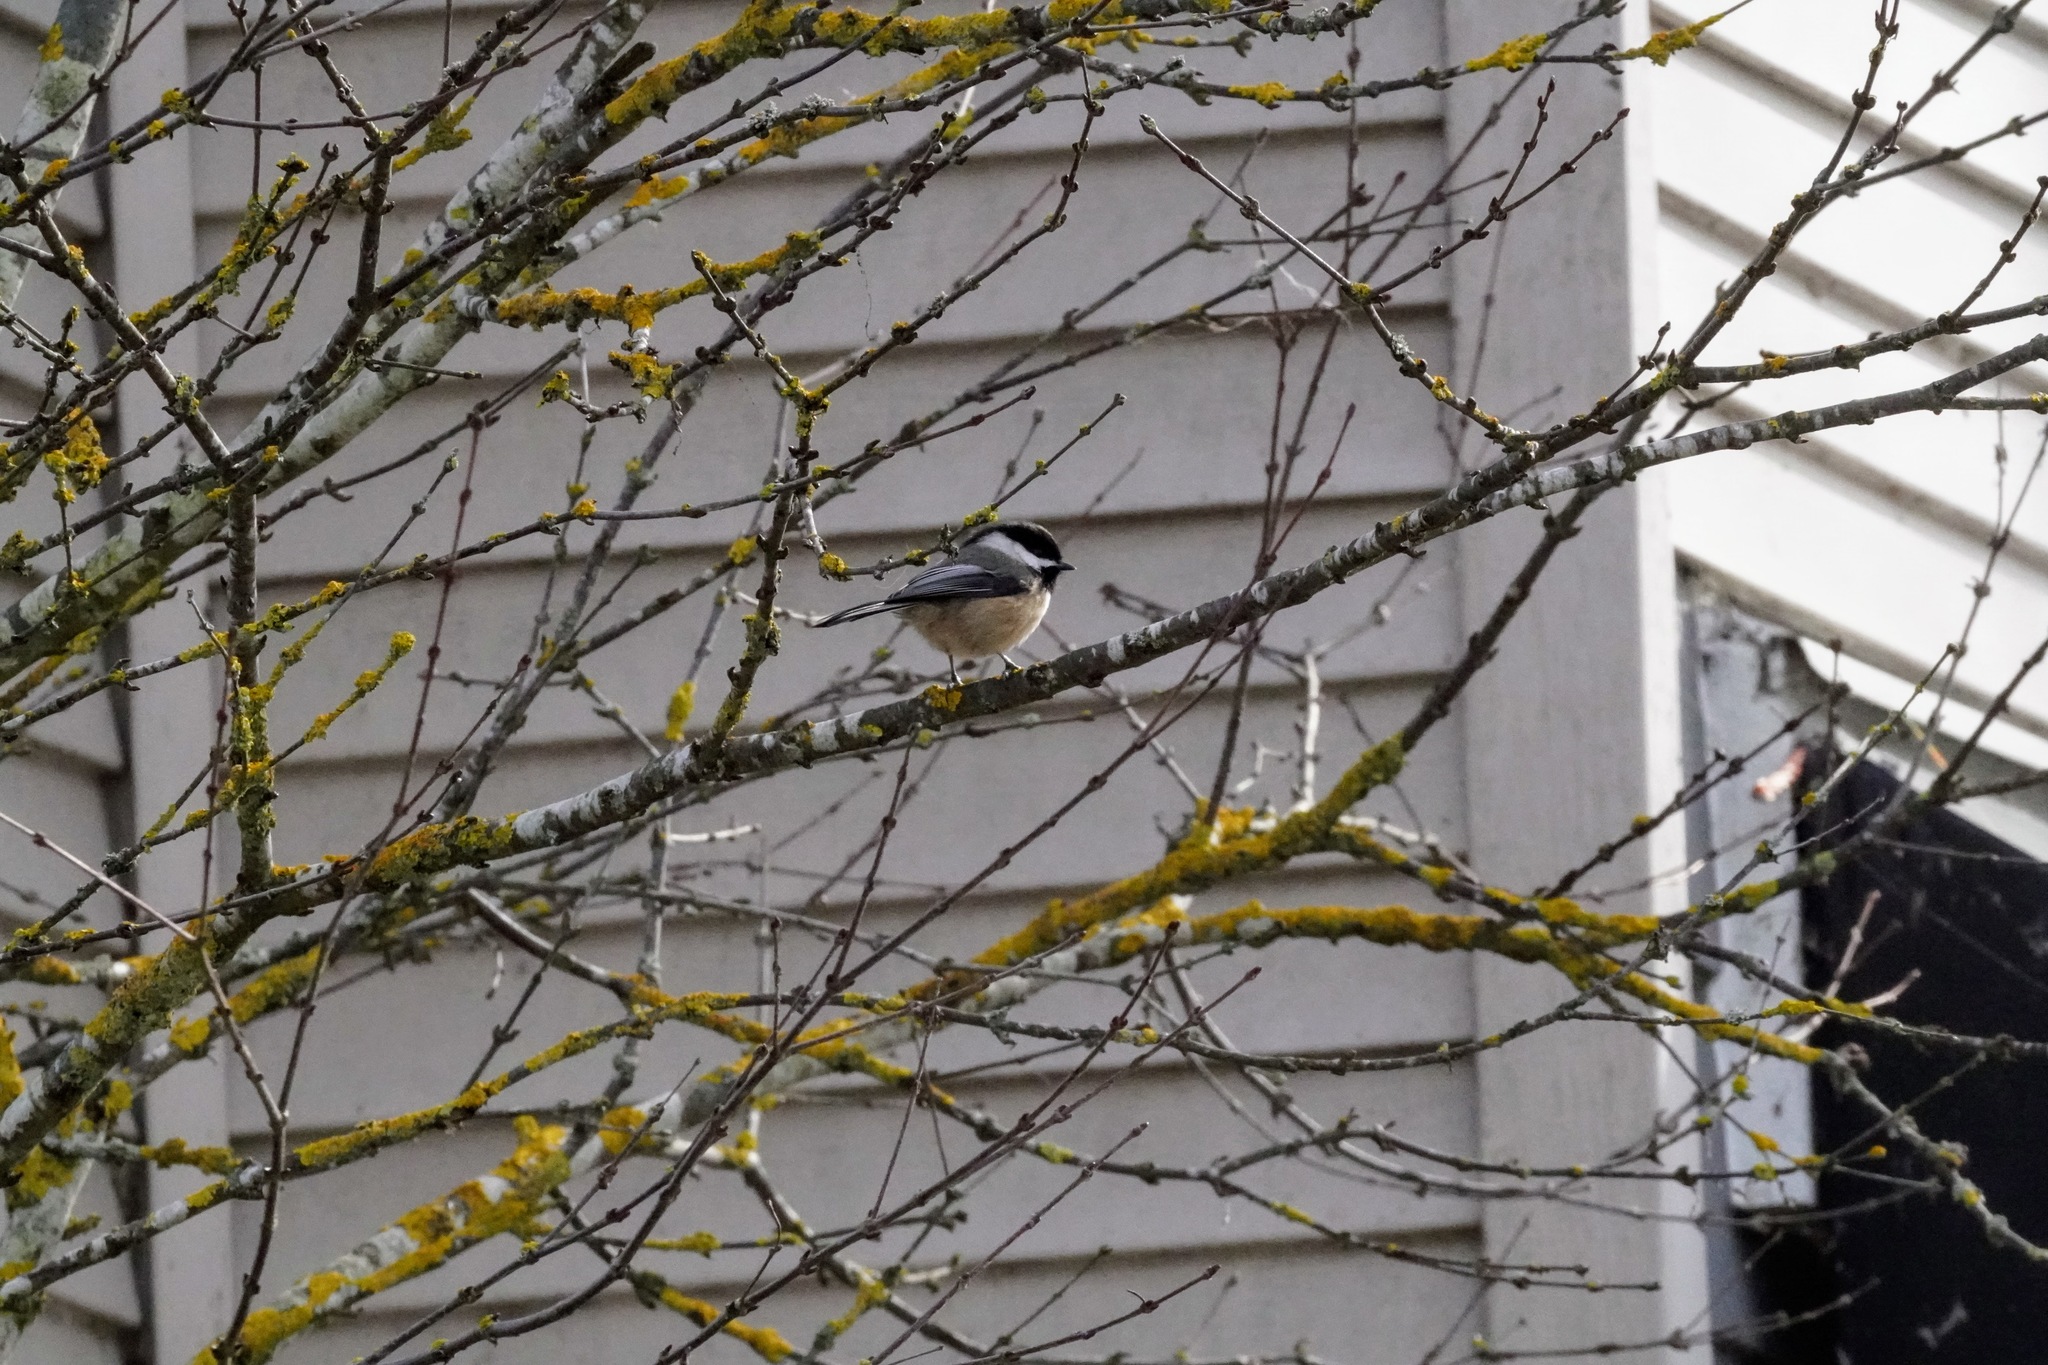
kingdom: Animalia
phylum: Chordata
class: Aves
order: Passeriformes
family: Paridae
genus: Poecile
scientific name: Poecile atricapillus
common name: Black-capped chickadee
